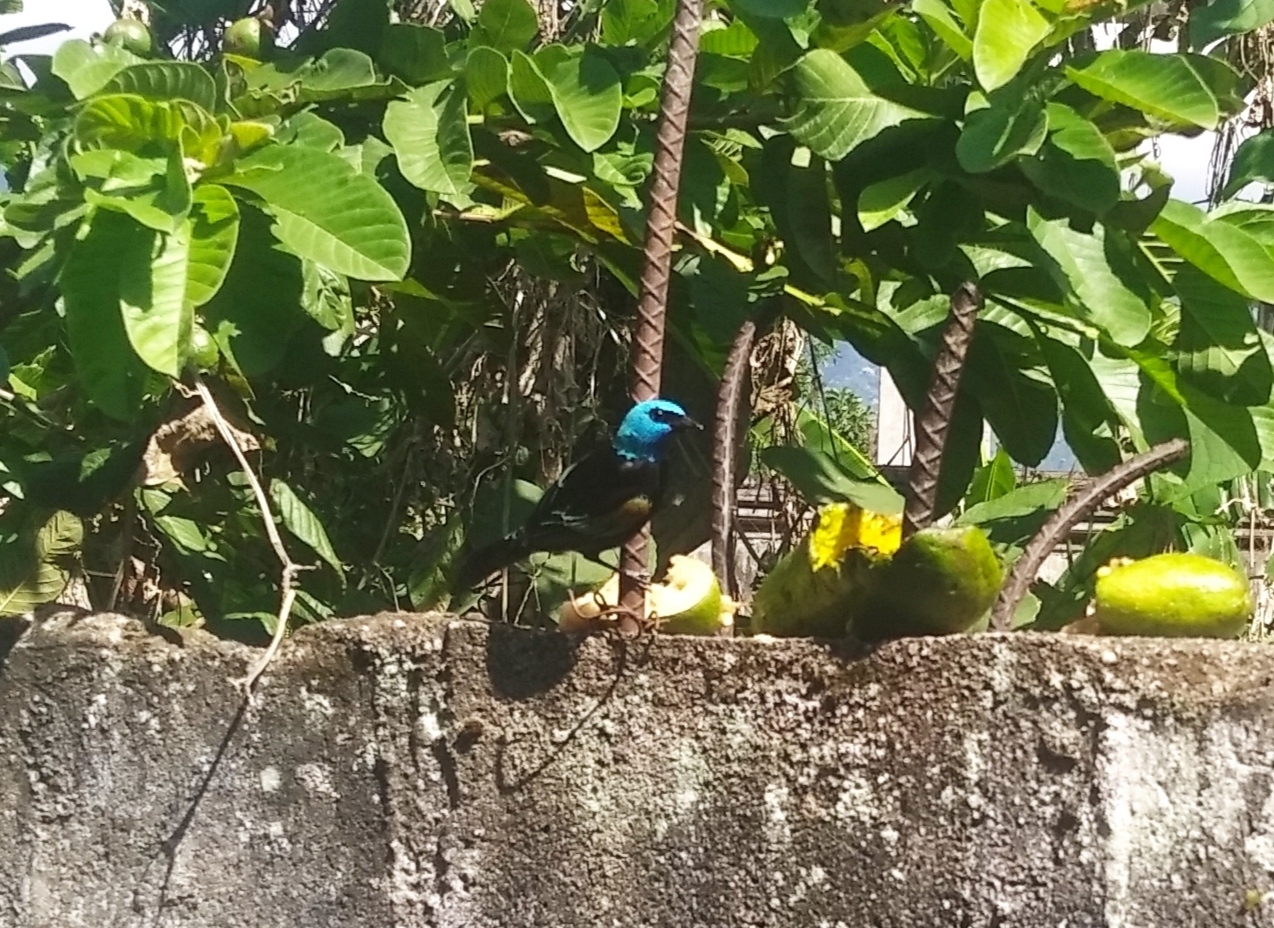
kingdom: Animalia
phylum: Chordata
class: Aves
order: Passeriformes
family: Thraupidae
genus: Stilpnia
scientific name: Stilpnia cyanicollis
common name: Blue-necked tanager
